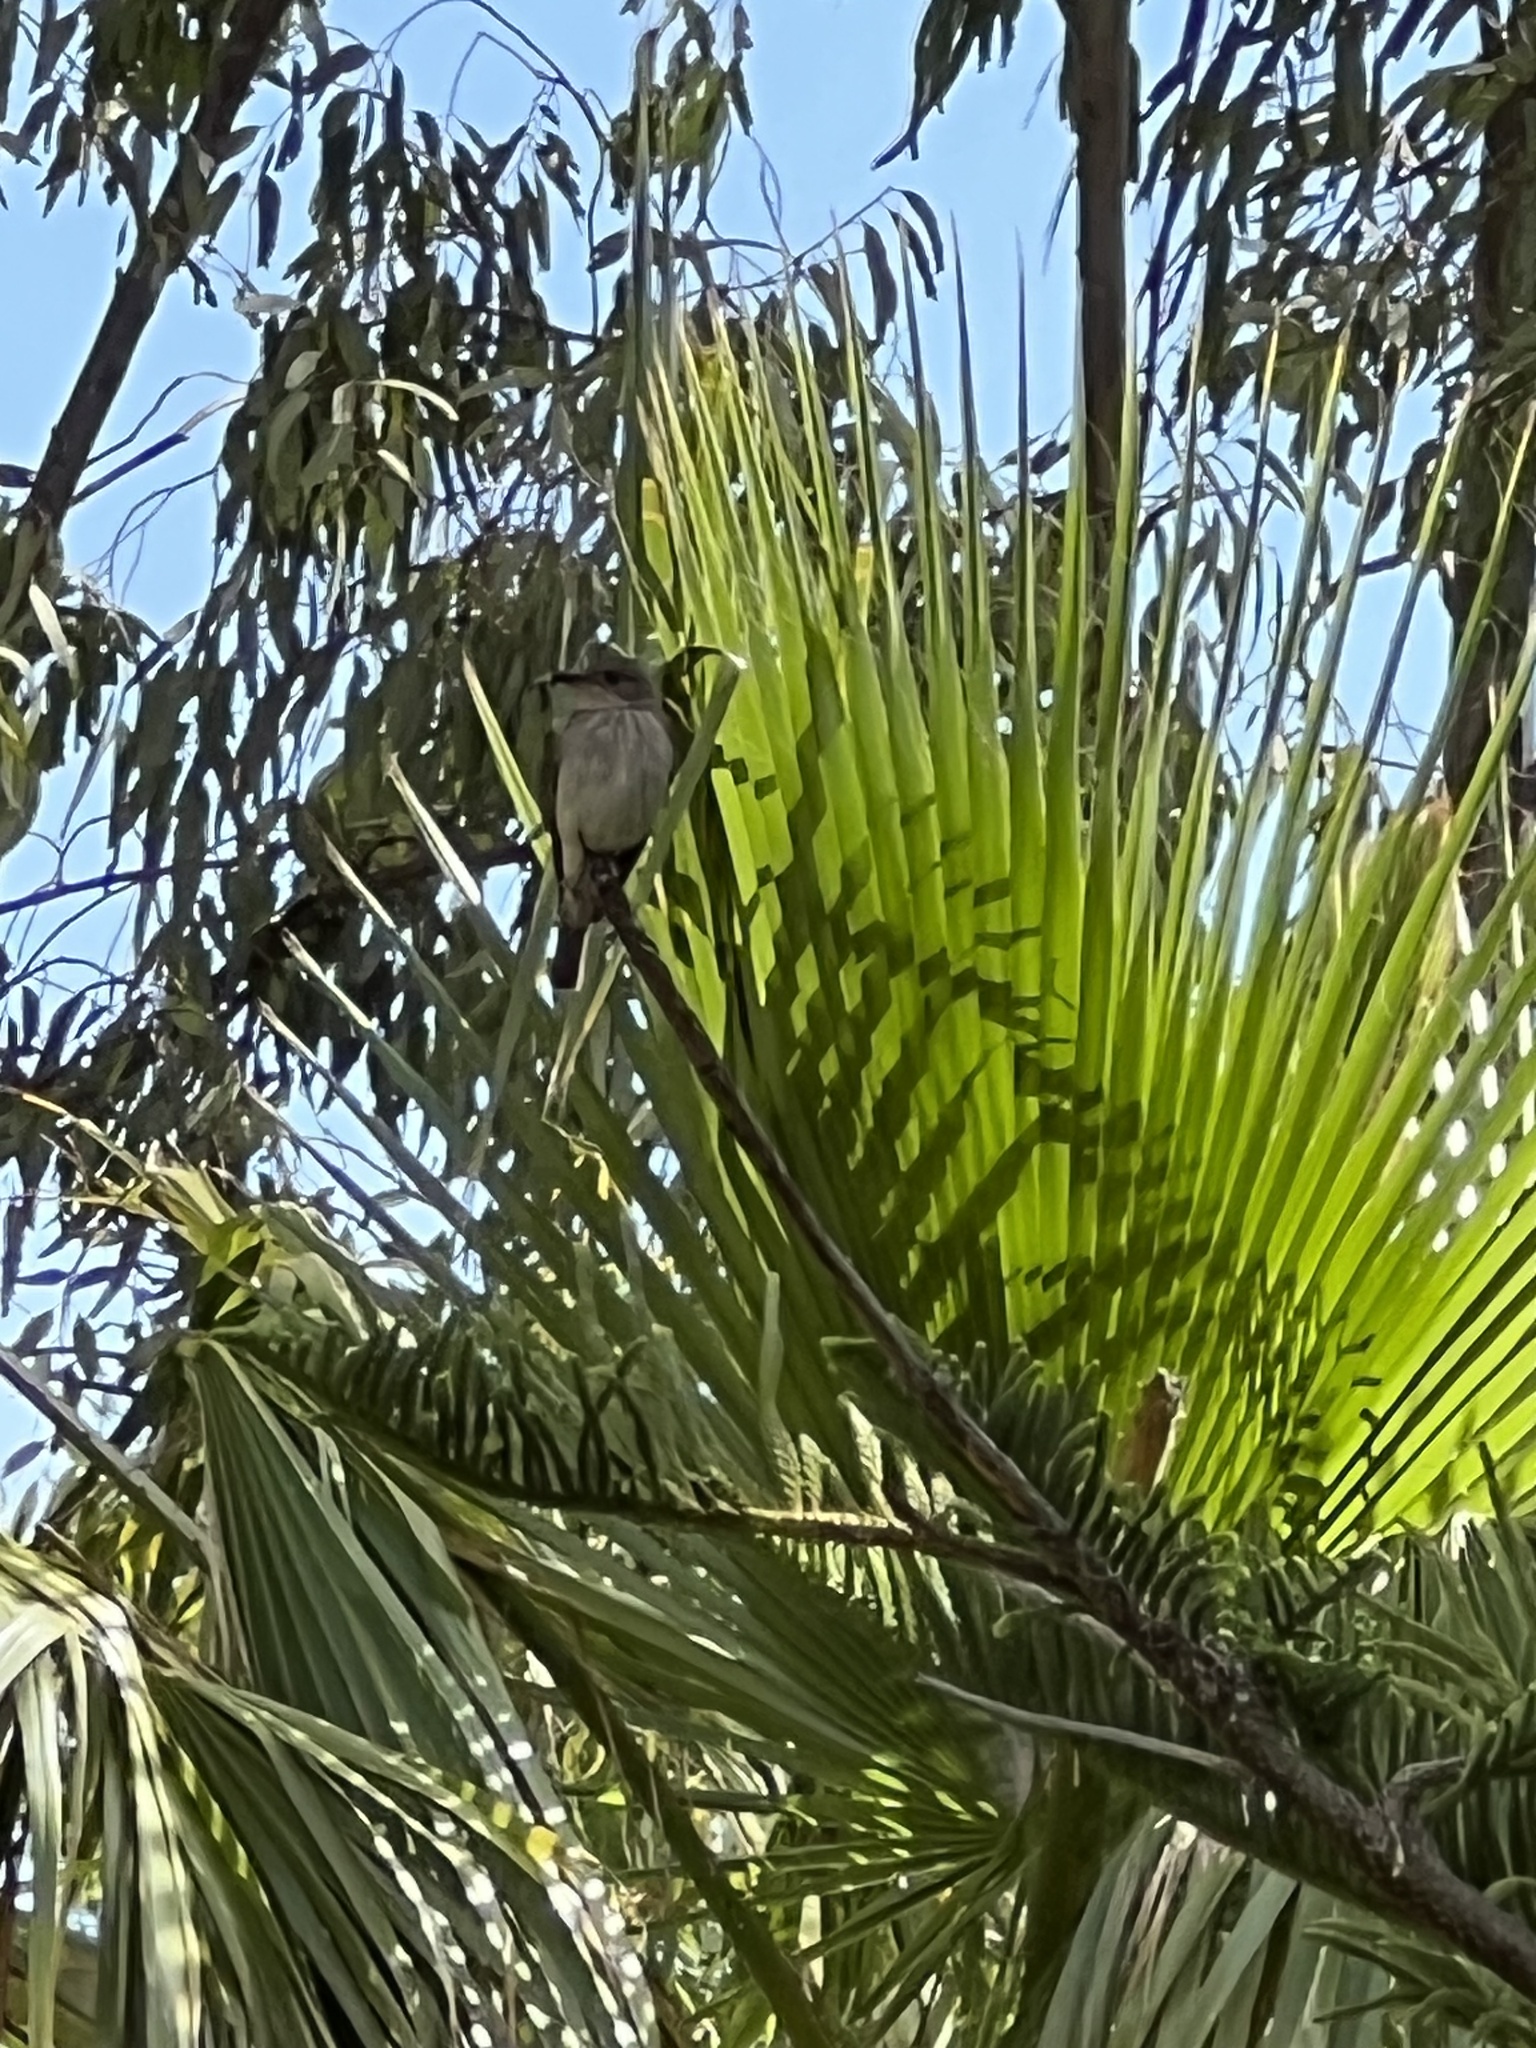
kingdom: Animalia
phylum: Chordata
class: Aves
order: Passeriformes
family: Muscicapidae
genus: Muscicapa
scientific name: Muscicapa striata
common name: Spotted flycatcher
